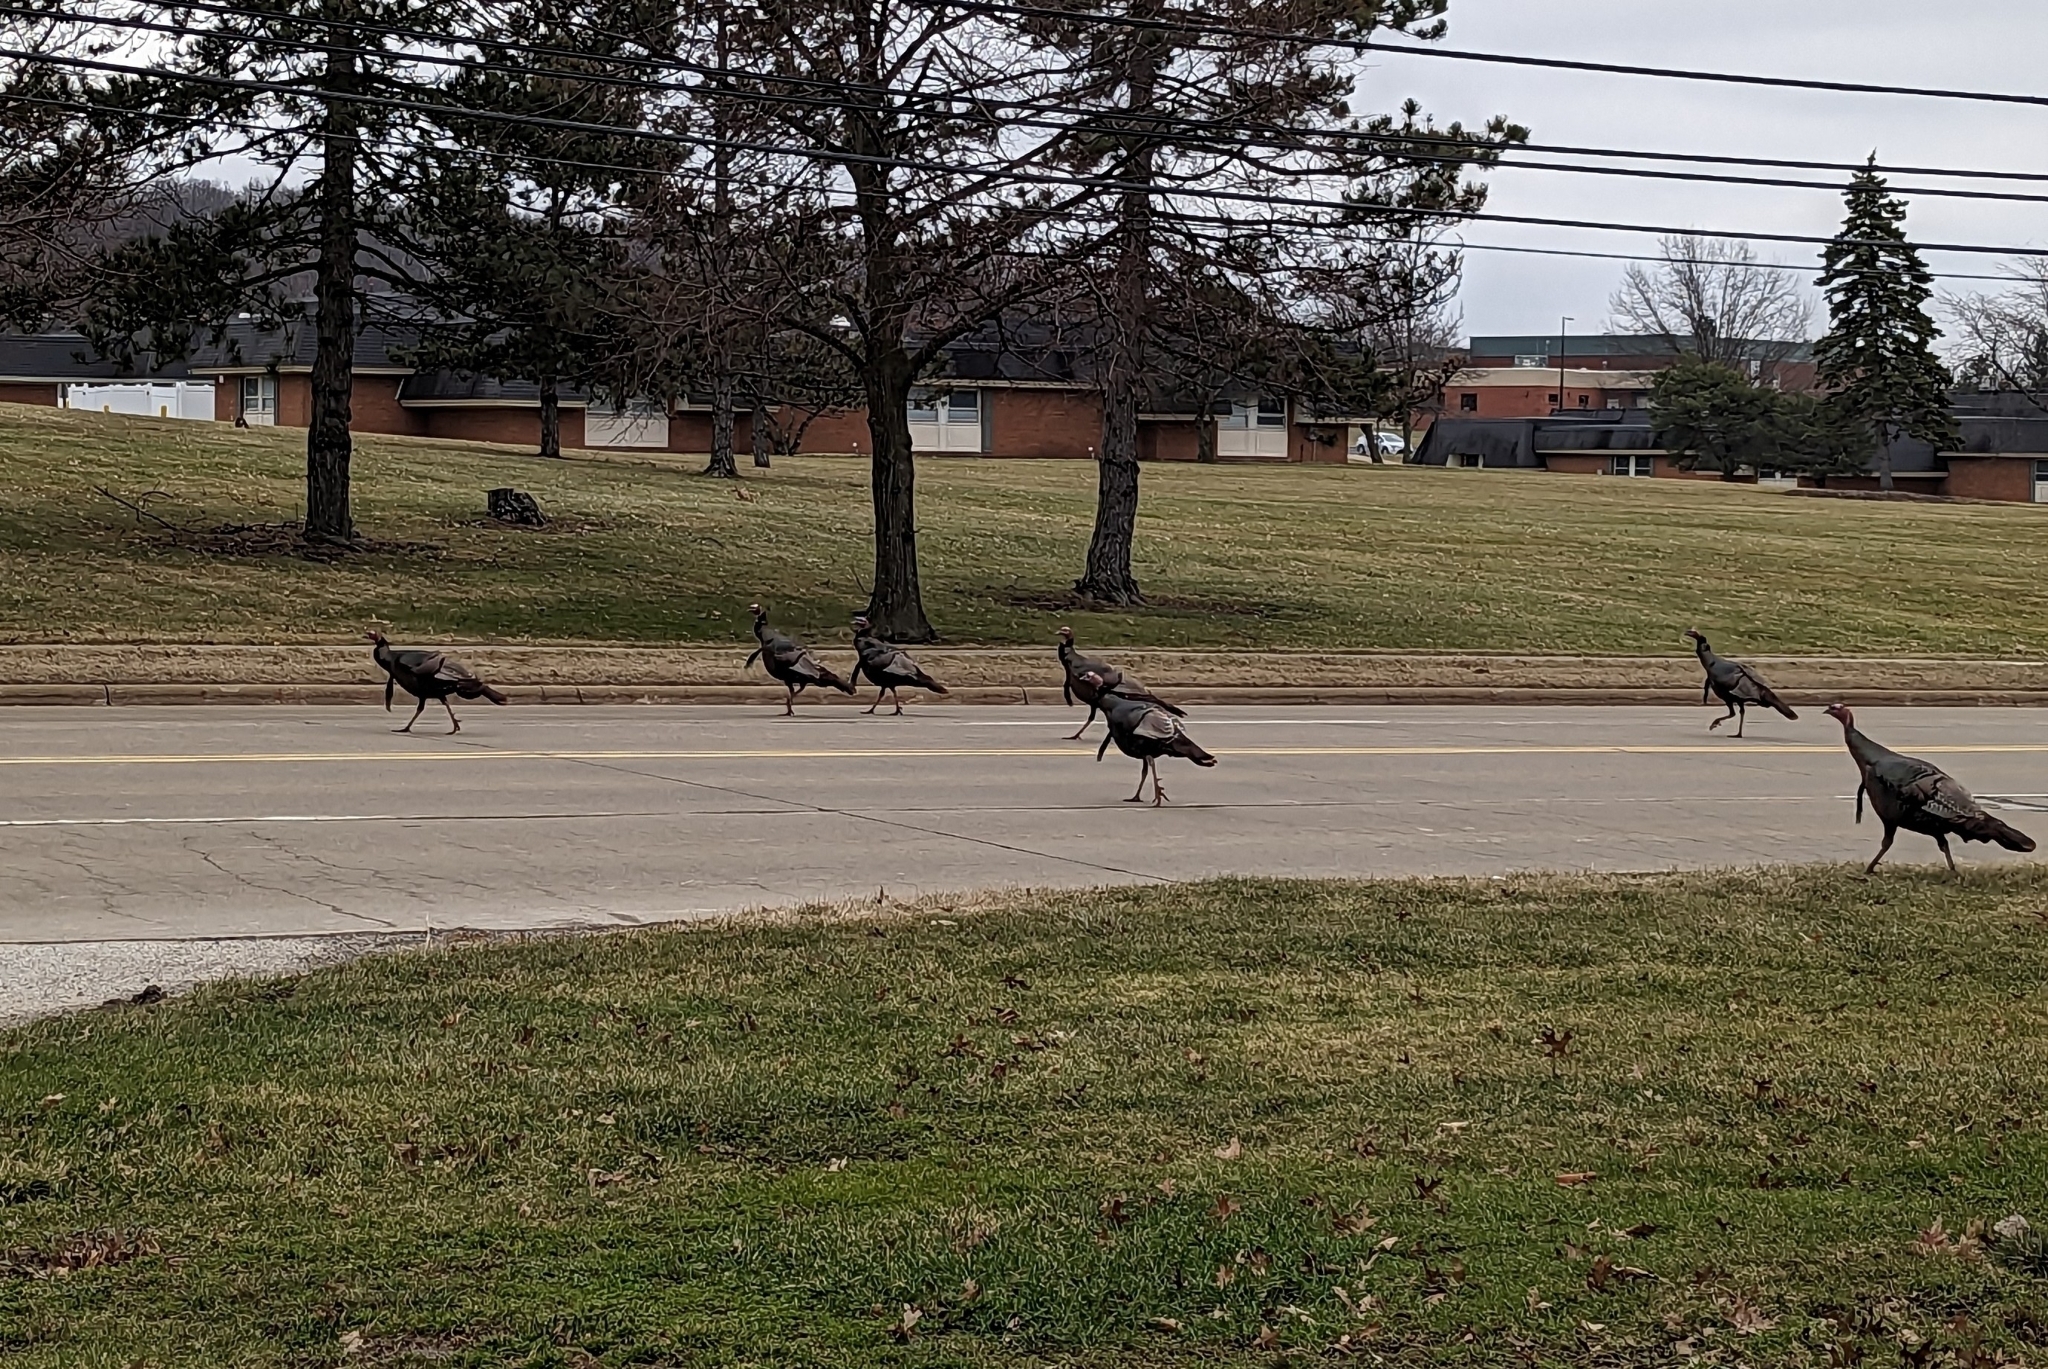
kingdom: Animalia
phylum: Chordata
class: Aves
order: Galliformes
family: Phasianidae
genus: Meleagris
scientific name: Meleagris gallopavo
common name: Wild turkey
